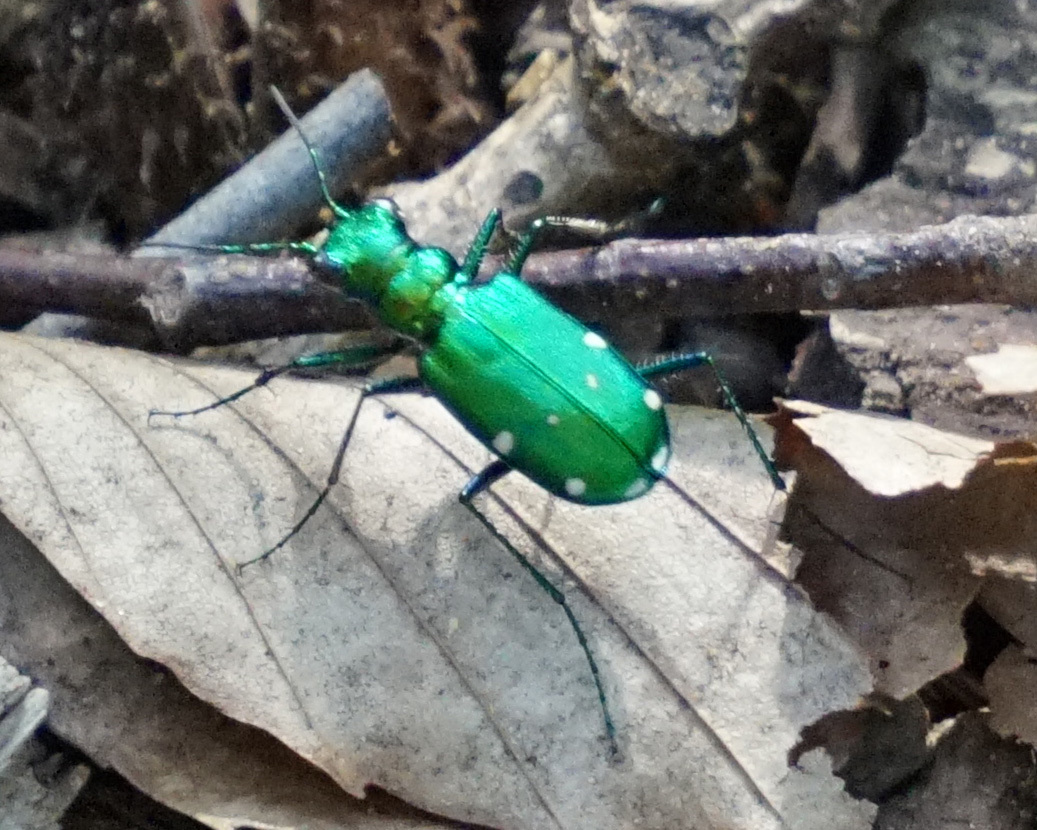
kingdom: Animalia
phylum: Arthropoda
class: Insecta
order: Coleoptera
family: Carabidae
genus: Cicindela
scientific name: Cicindela sexguttata
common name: Six-spotted tiger beetle
